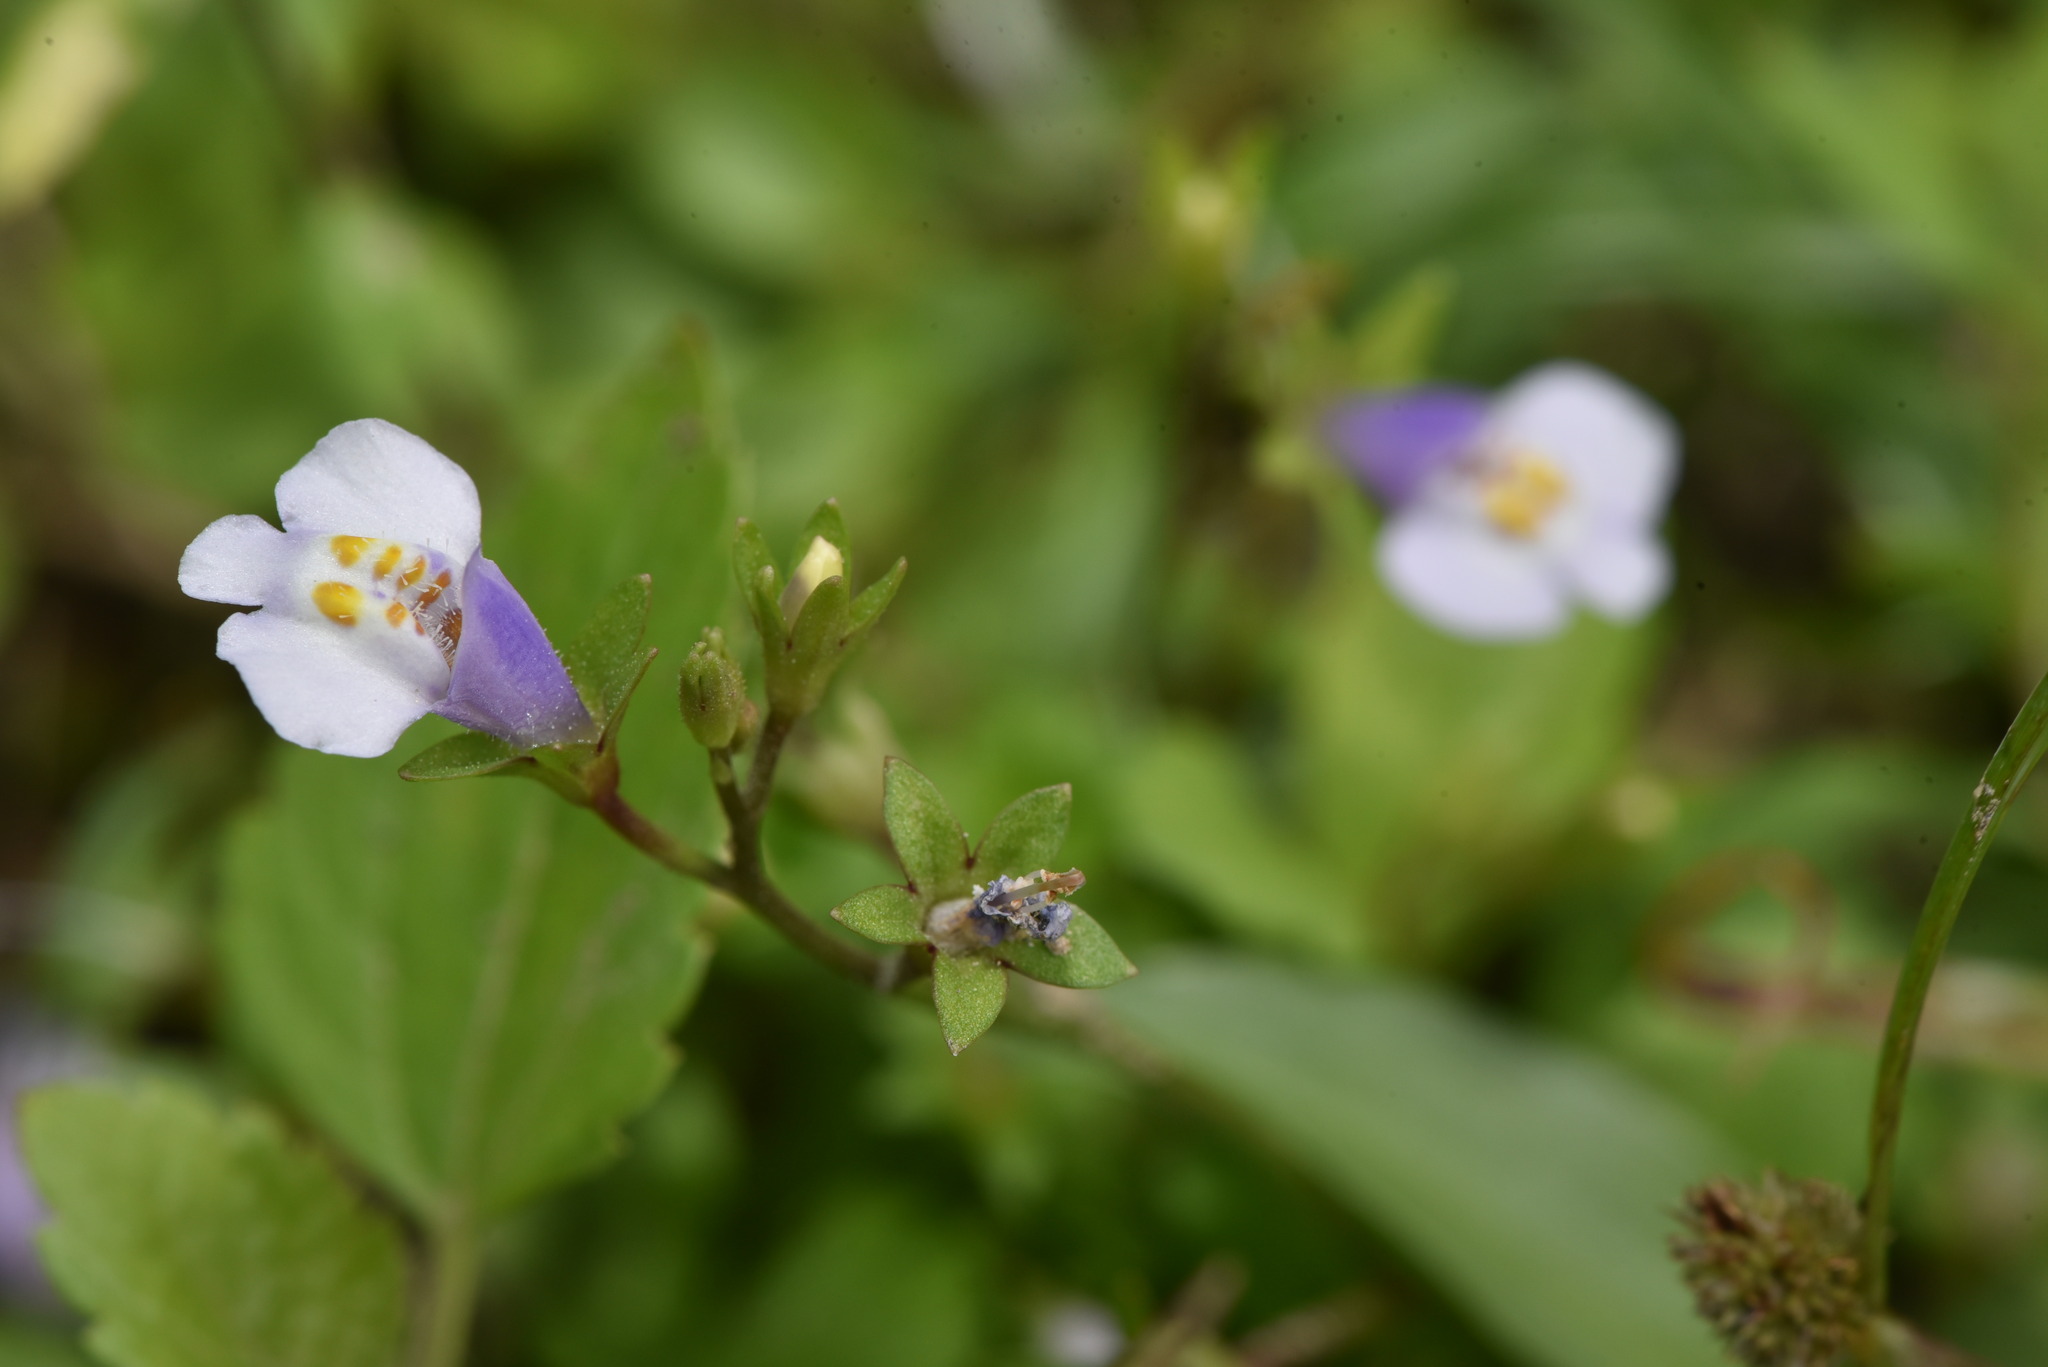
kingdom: Plantae
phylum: Tracheophyta
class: Magnoliopsida
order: Lamiales
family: Mazaceae
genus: Mazus
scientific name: Mazus pumilus
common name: Japanese mazus
